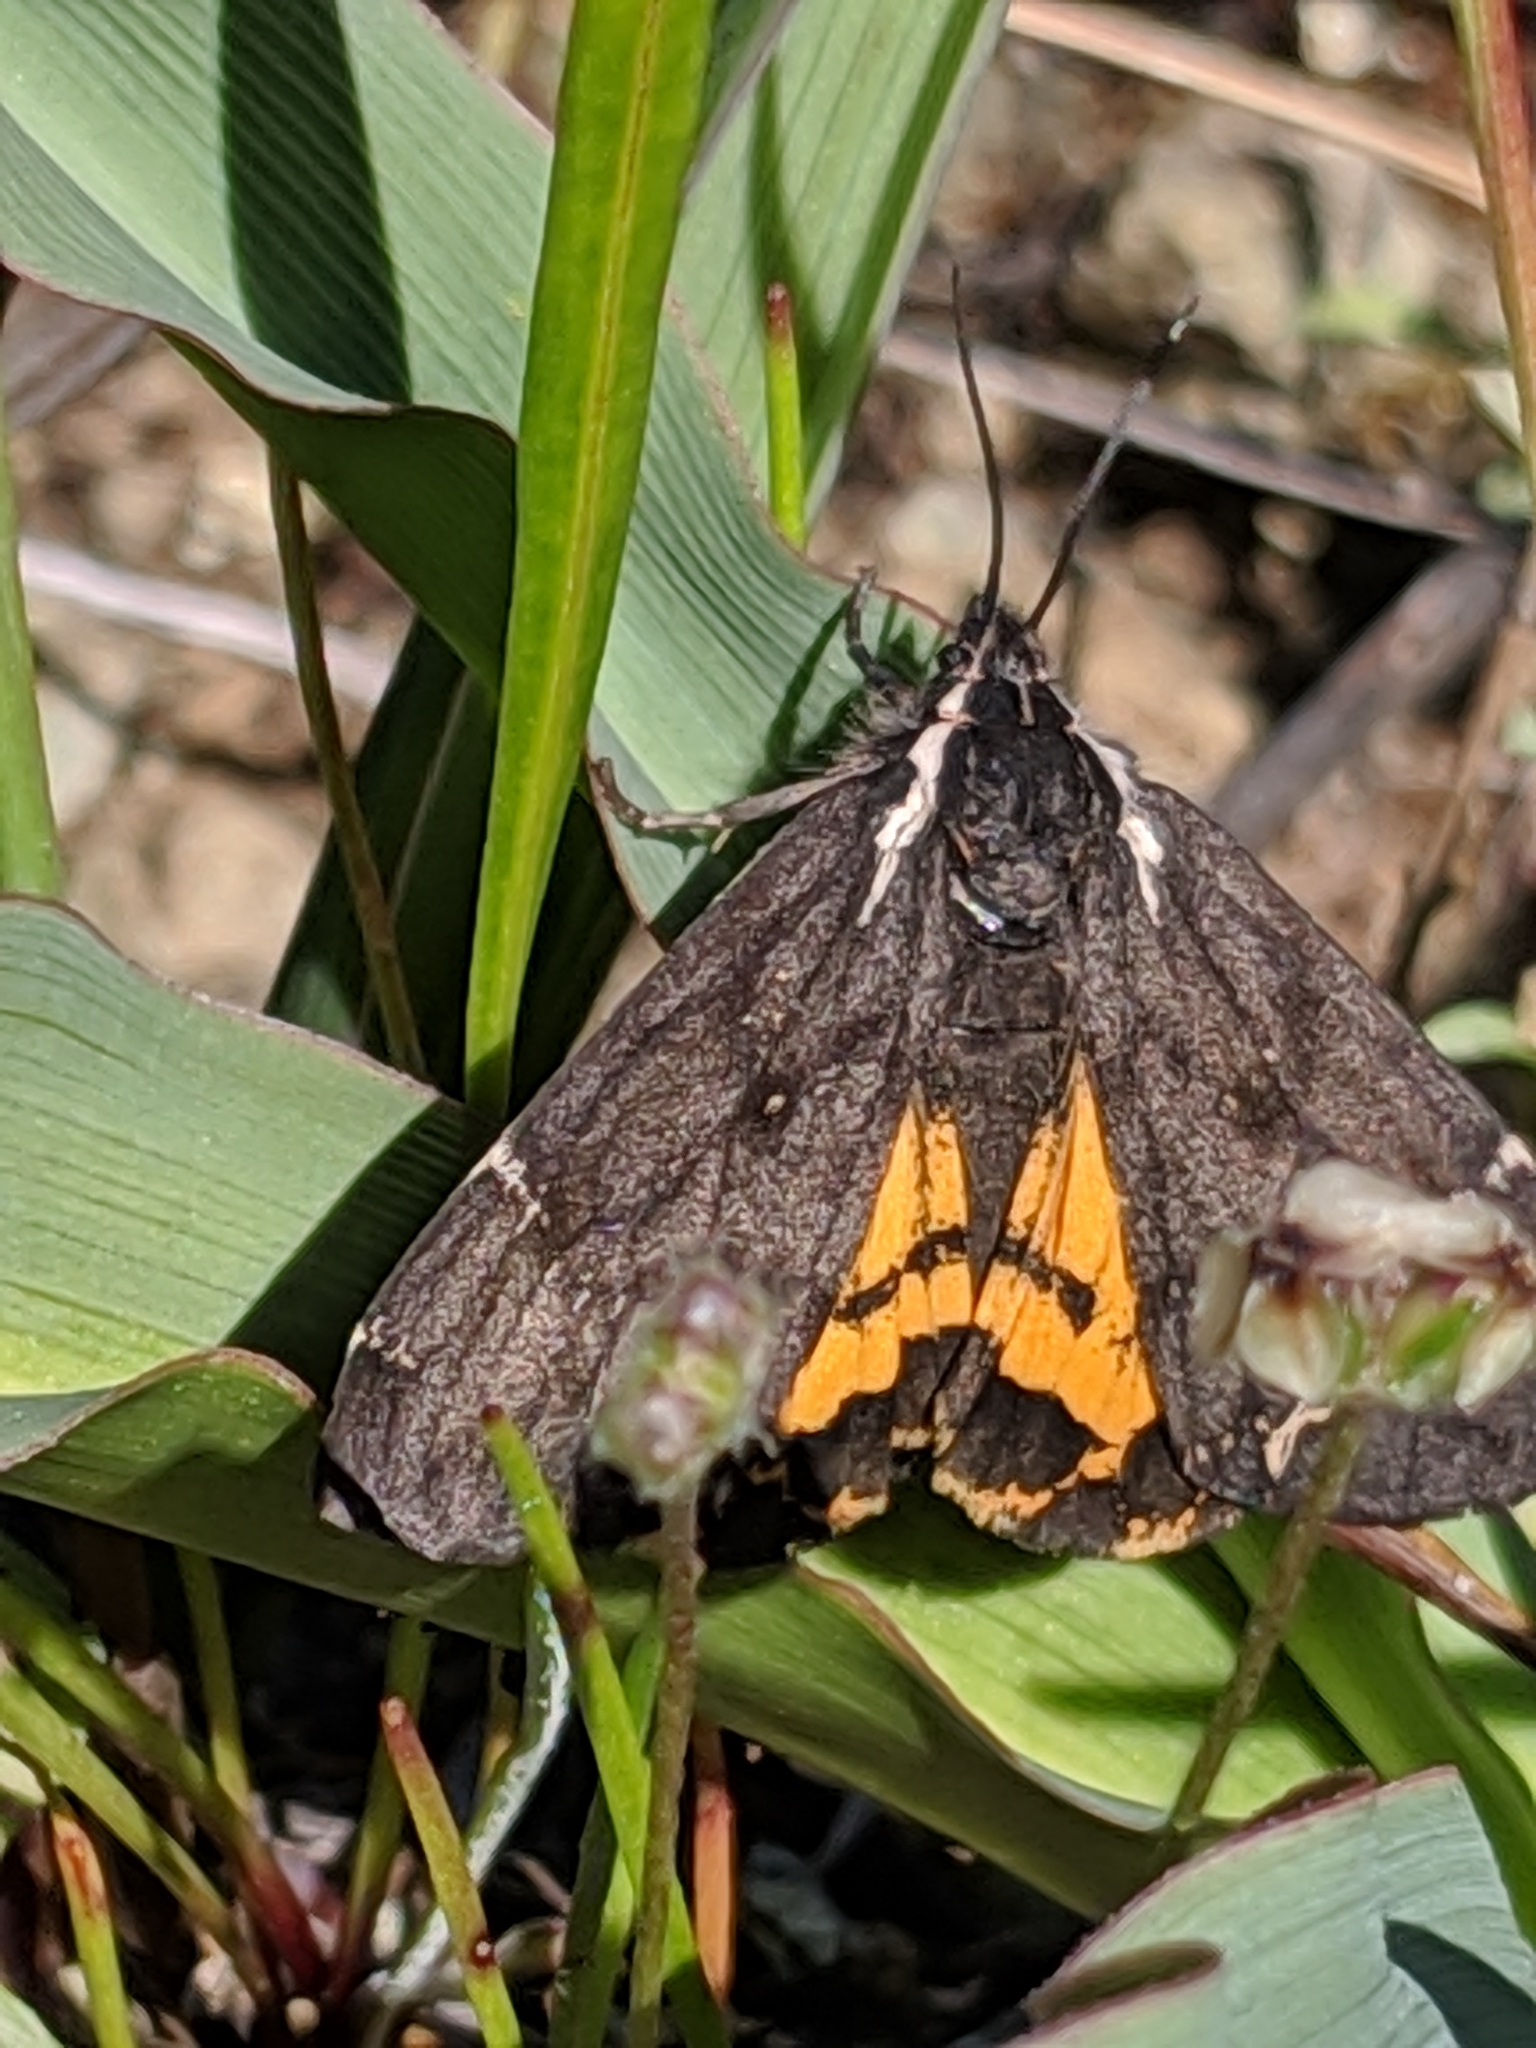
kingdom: Animalia
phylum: Arthropoda
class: Insecta
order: Lepidoptera
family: Erebidae
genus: Leptarctia
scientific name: Leptarctia californiae
